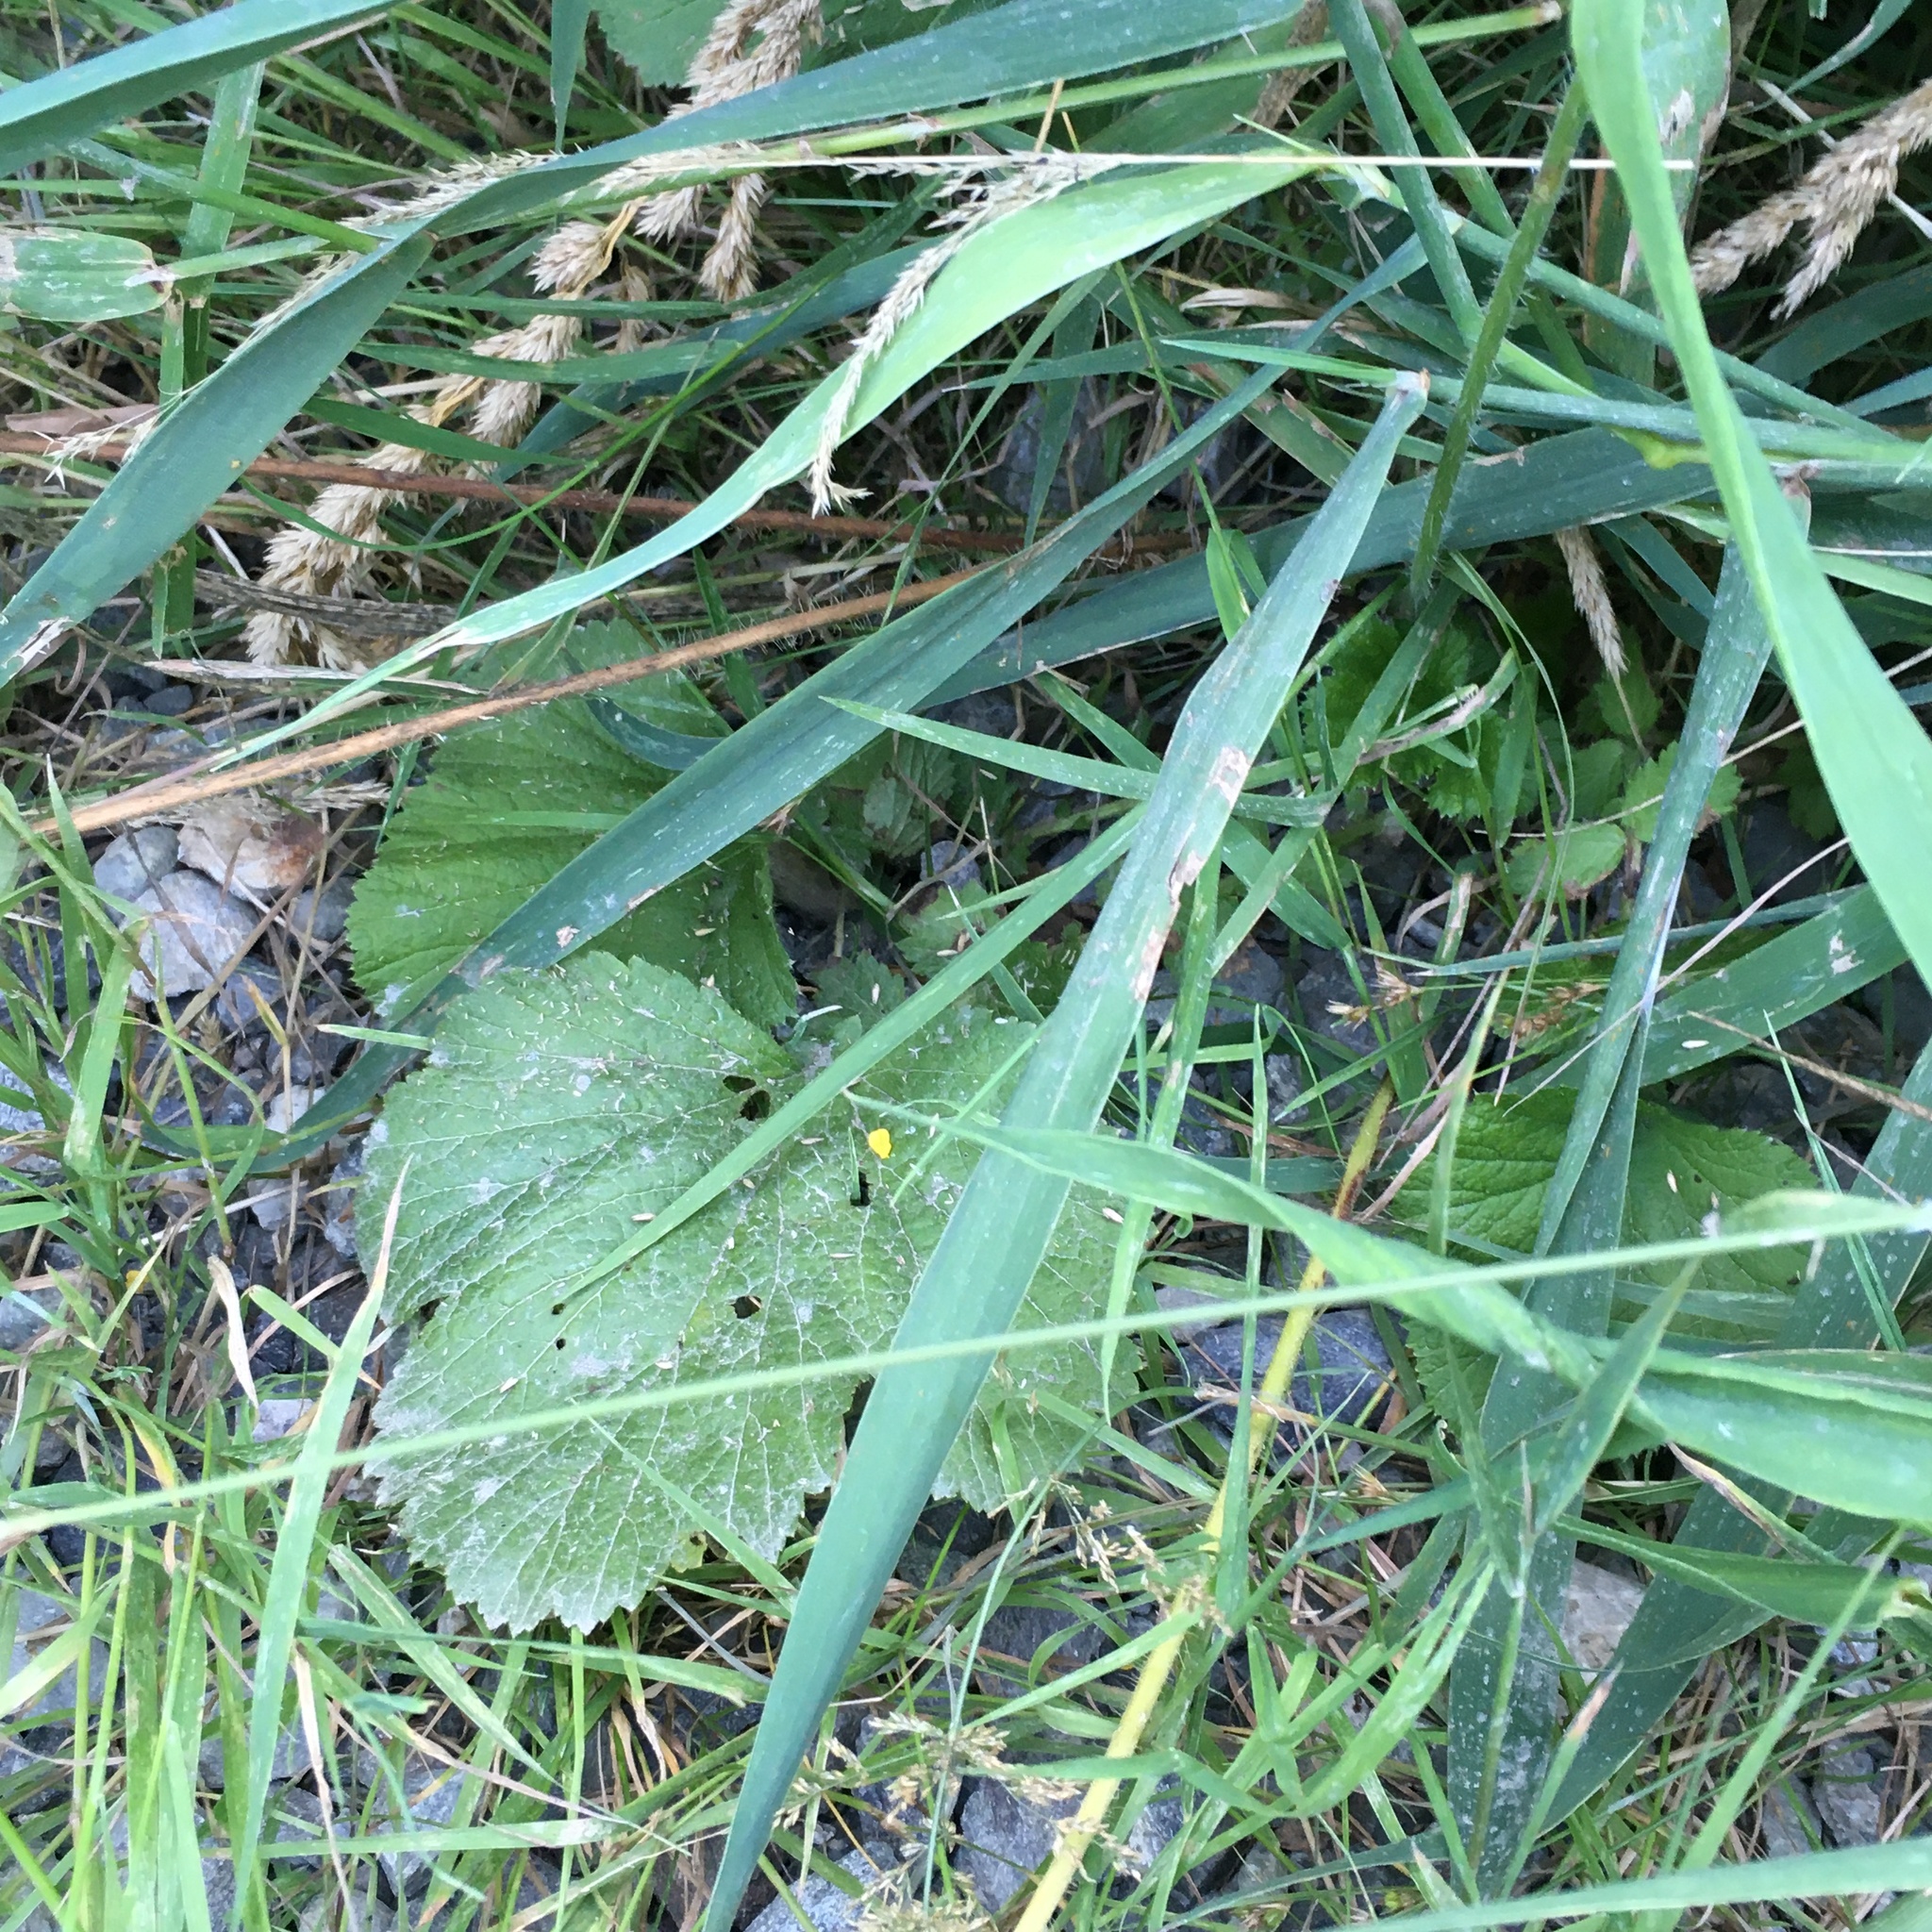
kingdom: Plantae
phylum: Tracheophyta
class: Magnoliopsida
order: Rosales
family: Rosaceae
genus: Geum
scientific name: Geum macrophyllum
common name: Large-leaved avens
